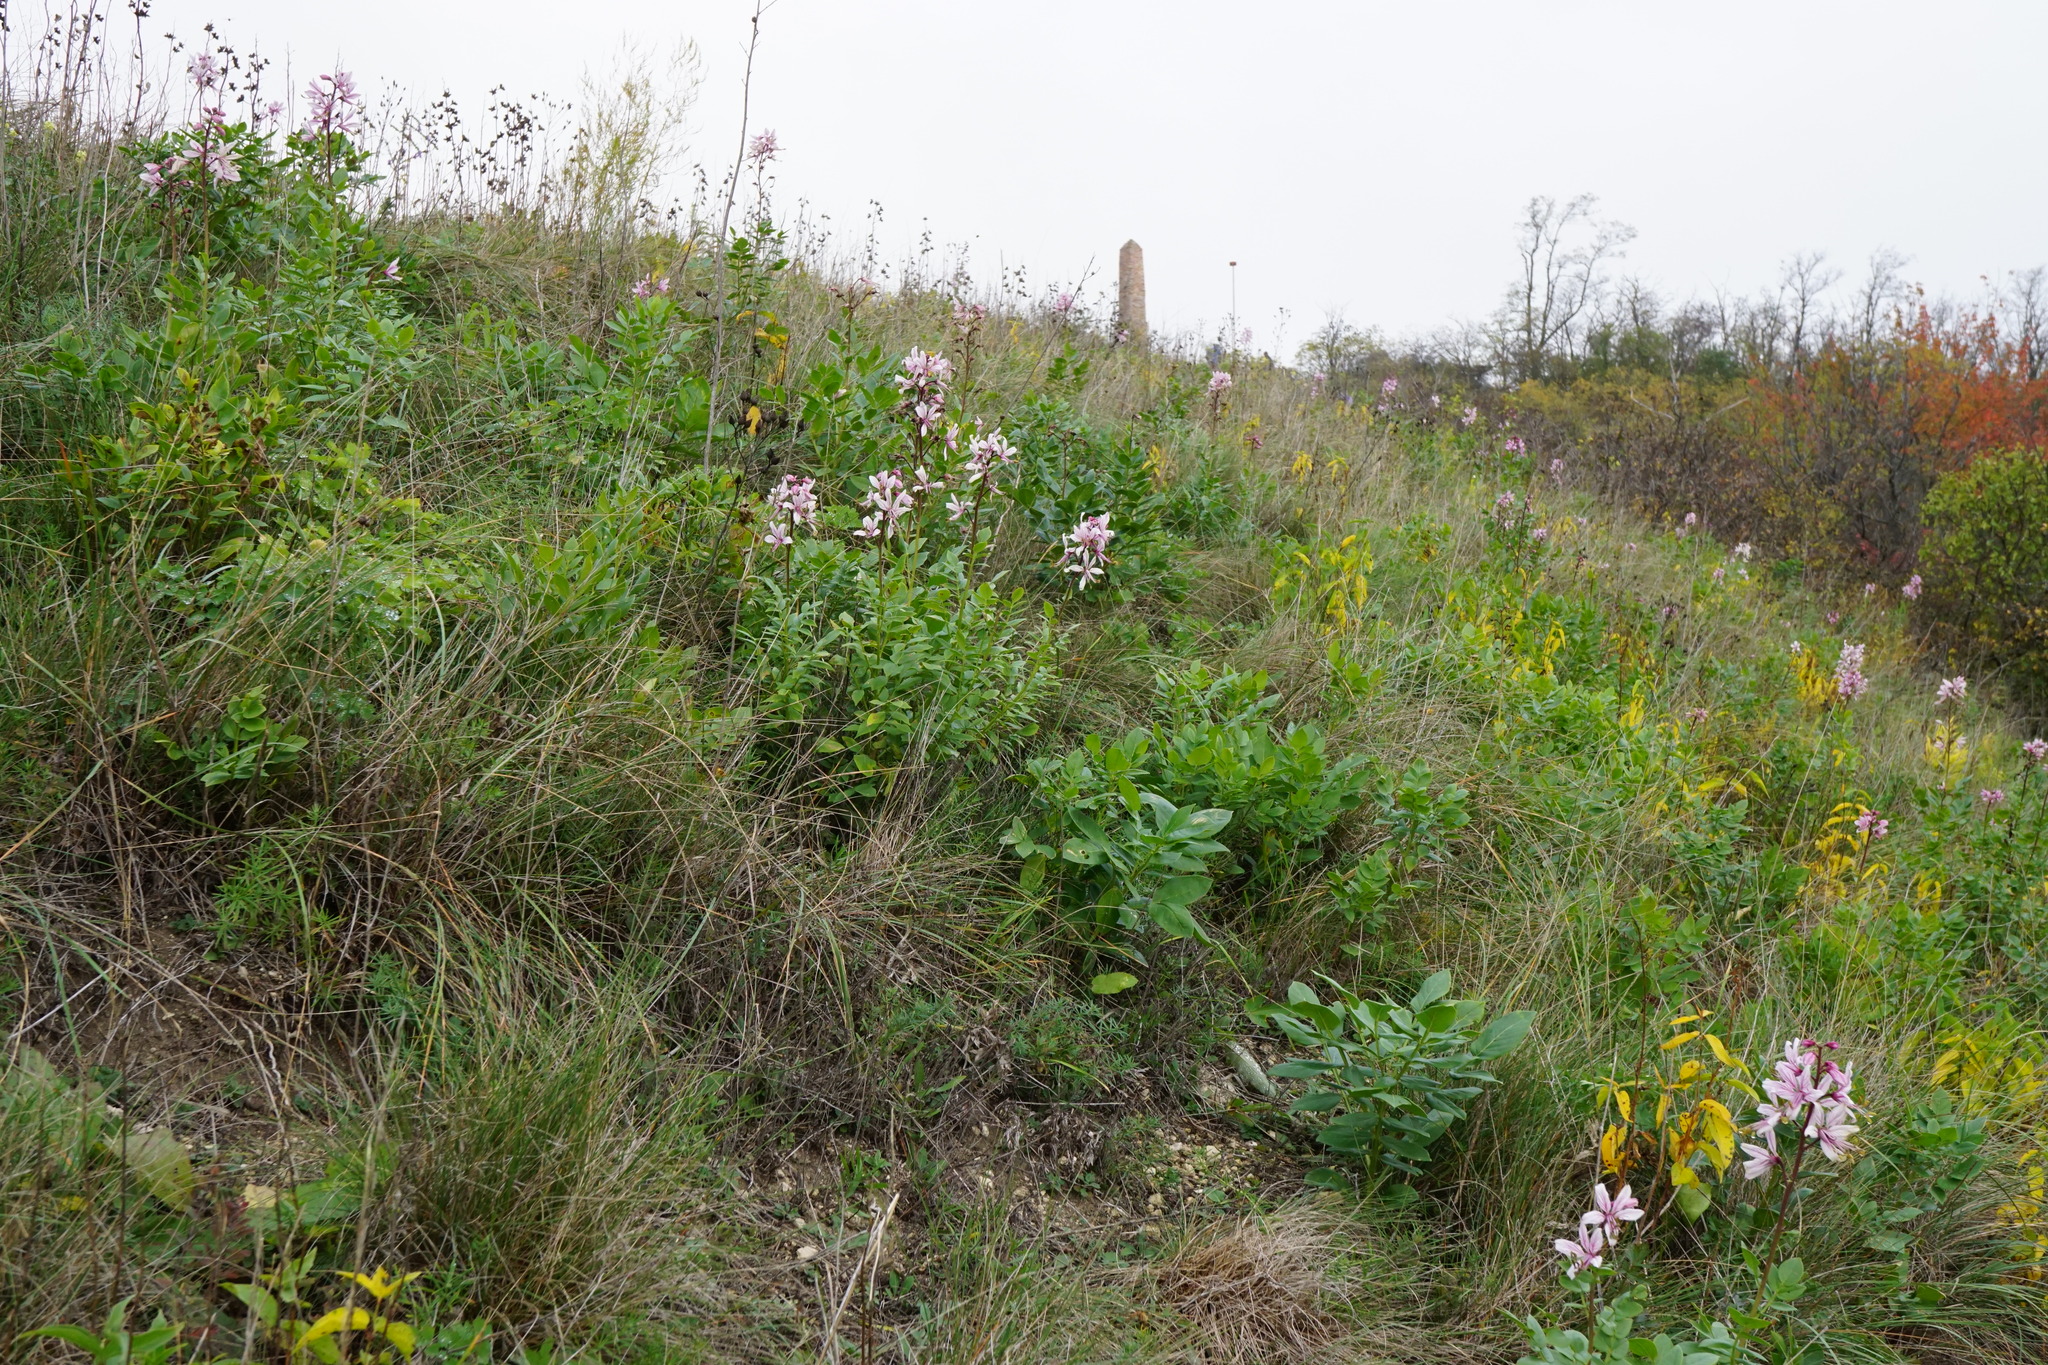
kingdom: Plantae
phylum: Tracheophyta
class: Magnoliopsida
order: Sapindales
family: Rutaceae
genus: Dictamnus
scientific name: Dictamnus albus
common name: Gasplant
